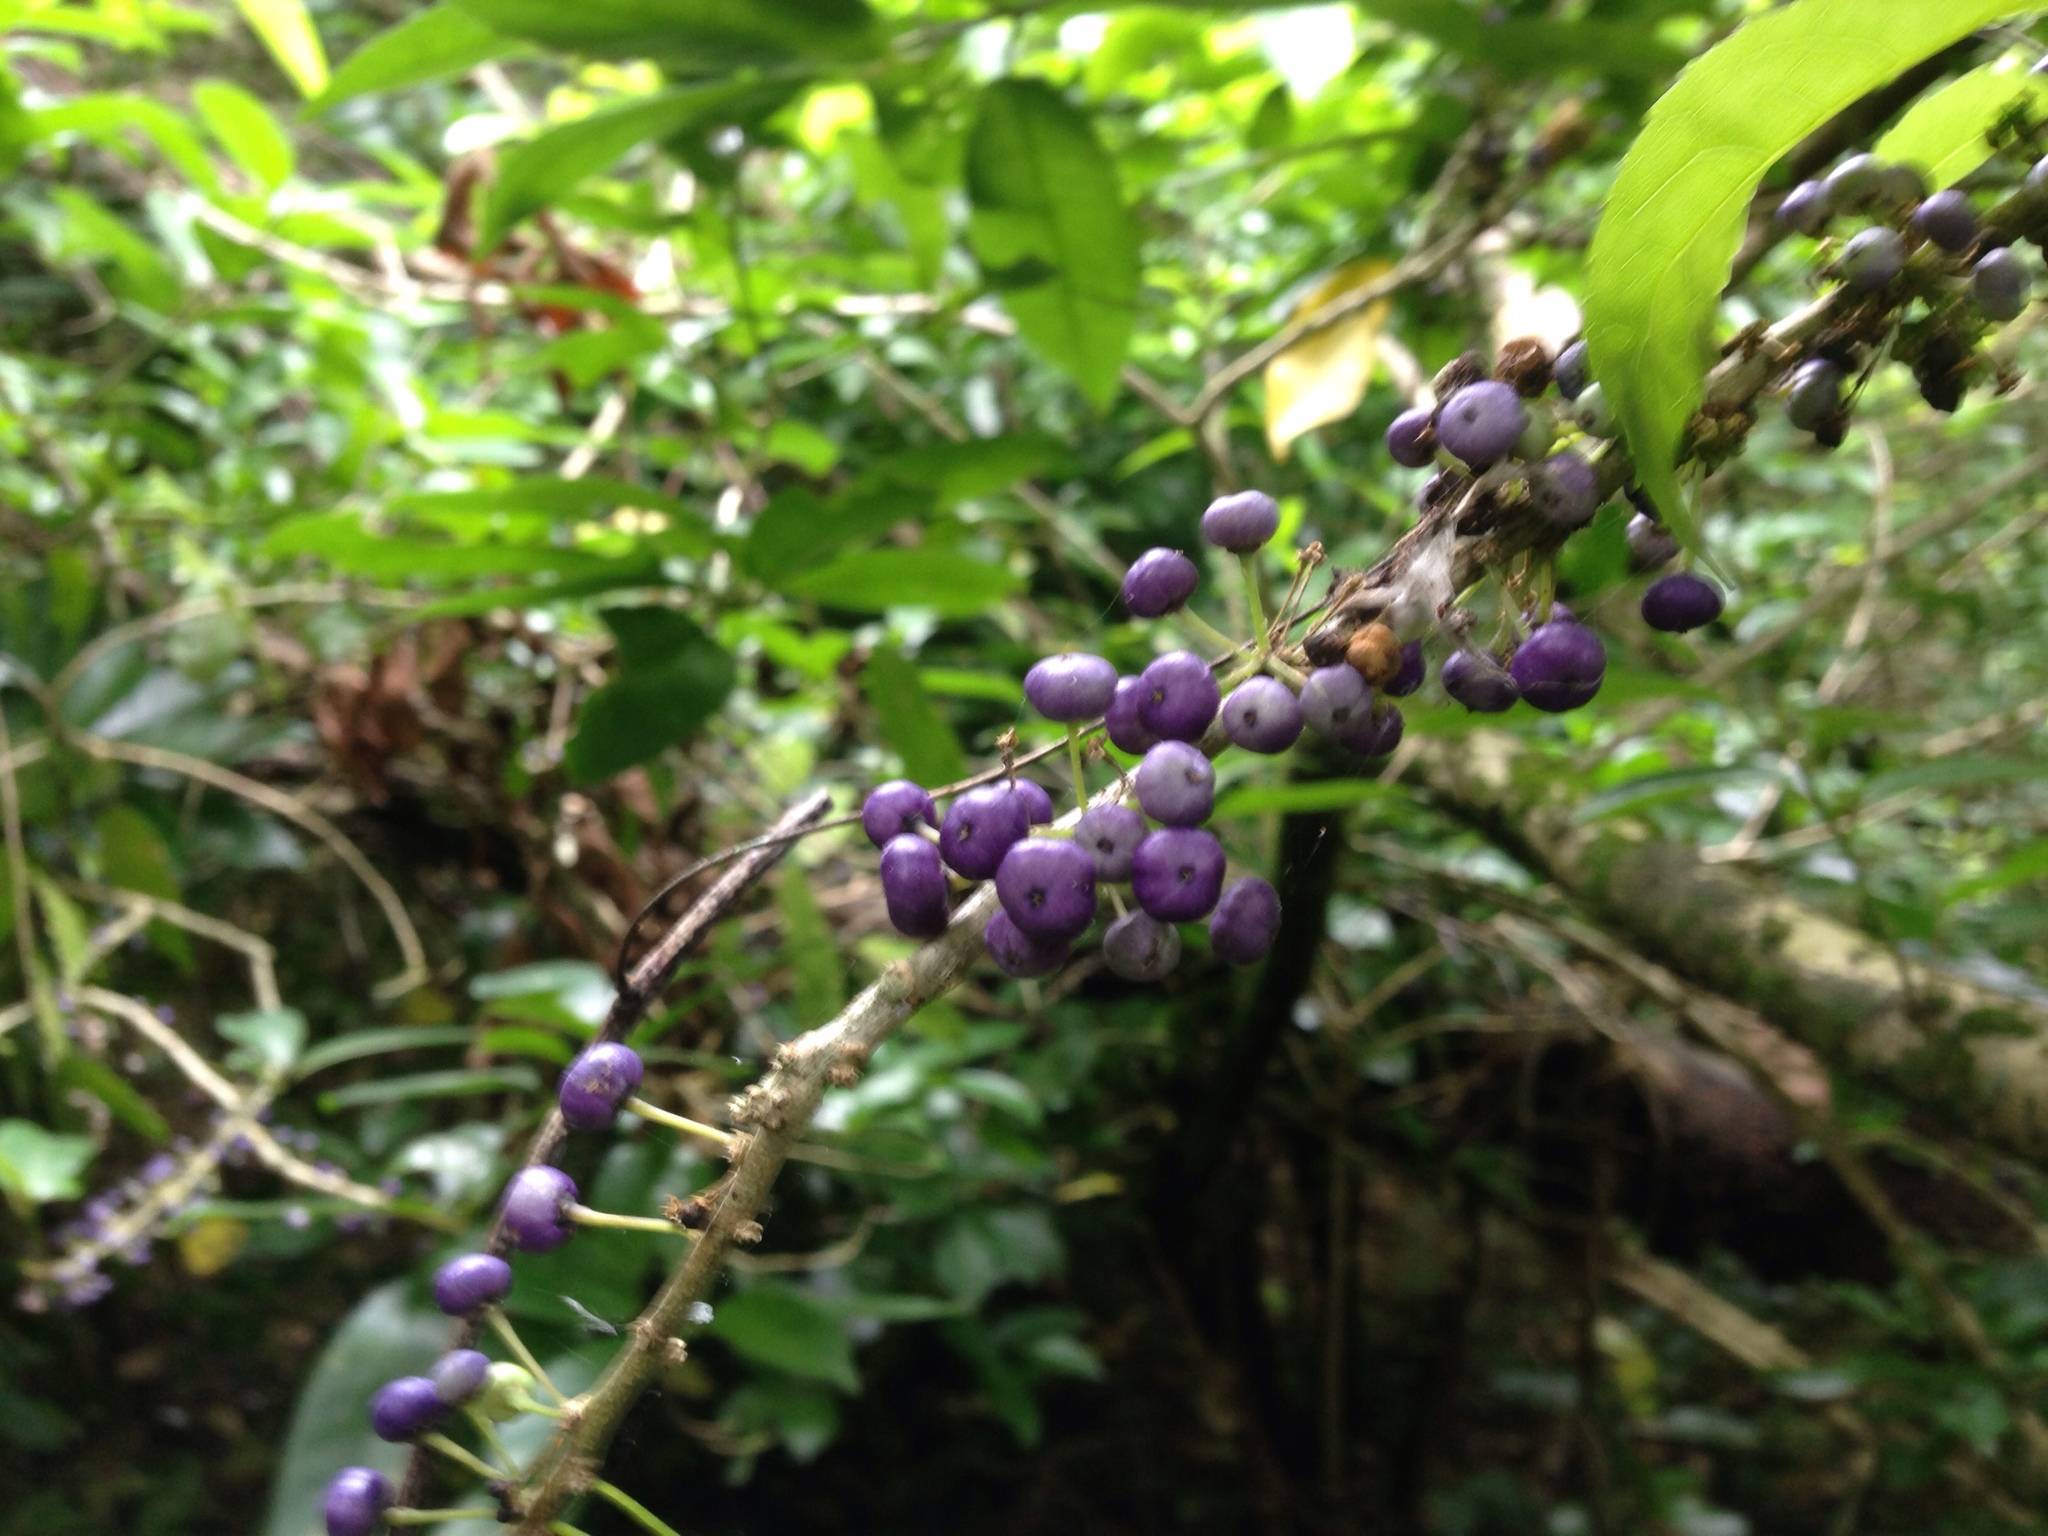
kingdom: Plantae
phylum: Tracheophyta
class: Magnoliopsida
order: Malpighiales
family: Violaceae
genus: Melicytus
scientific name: Melicytus ramiflorus
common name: Mahoe
